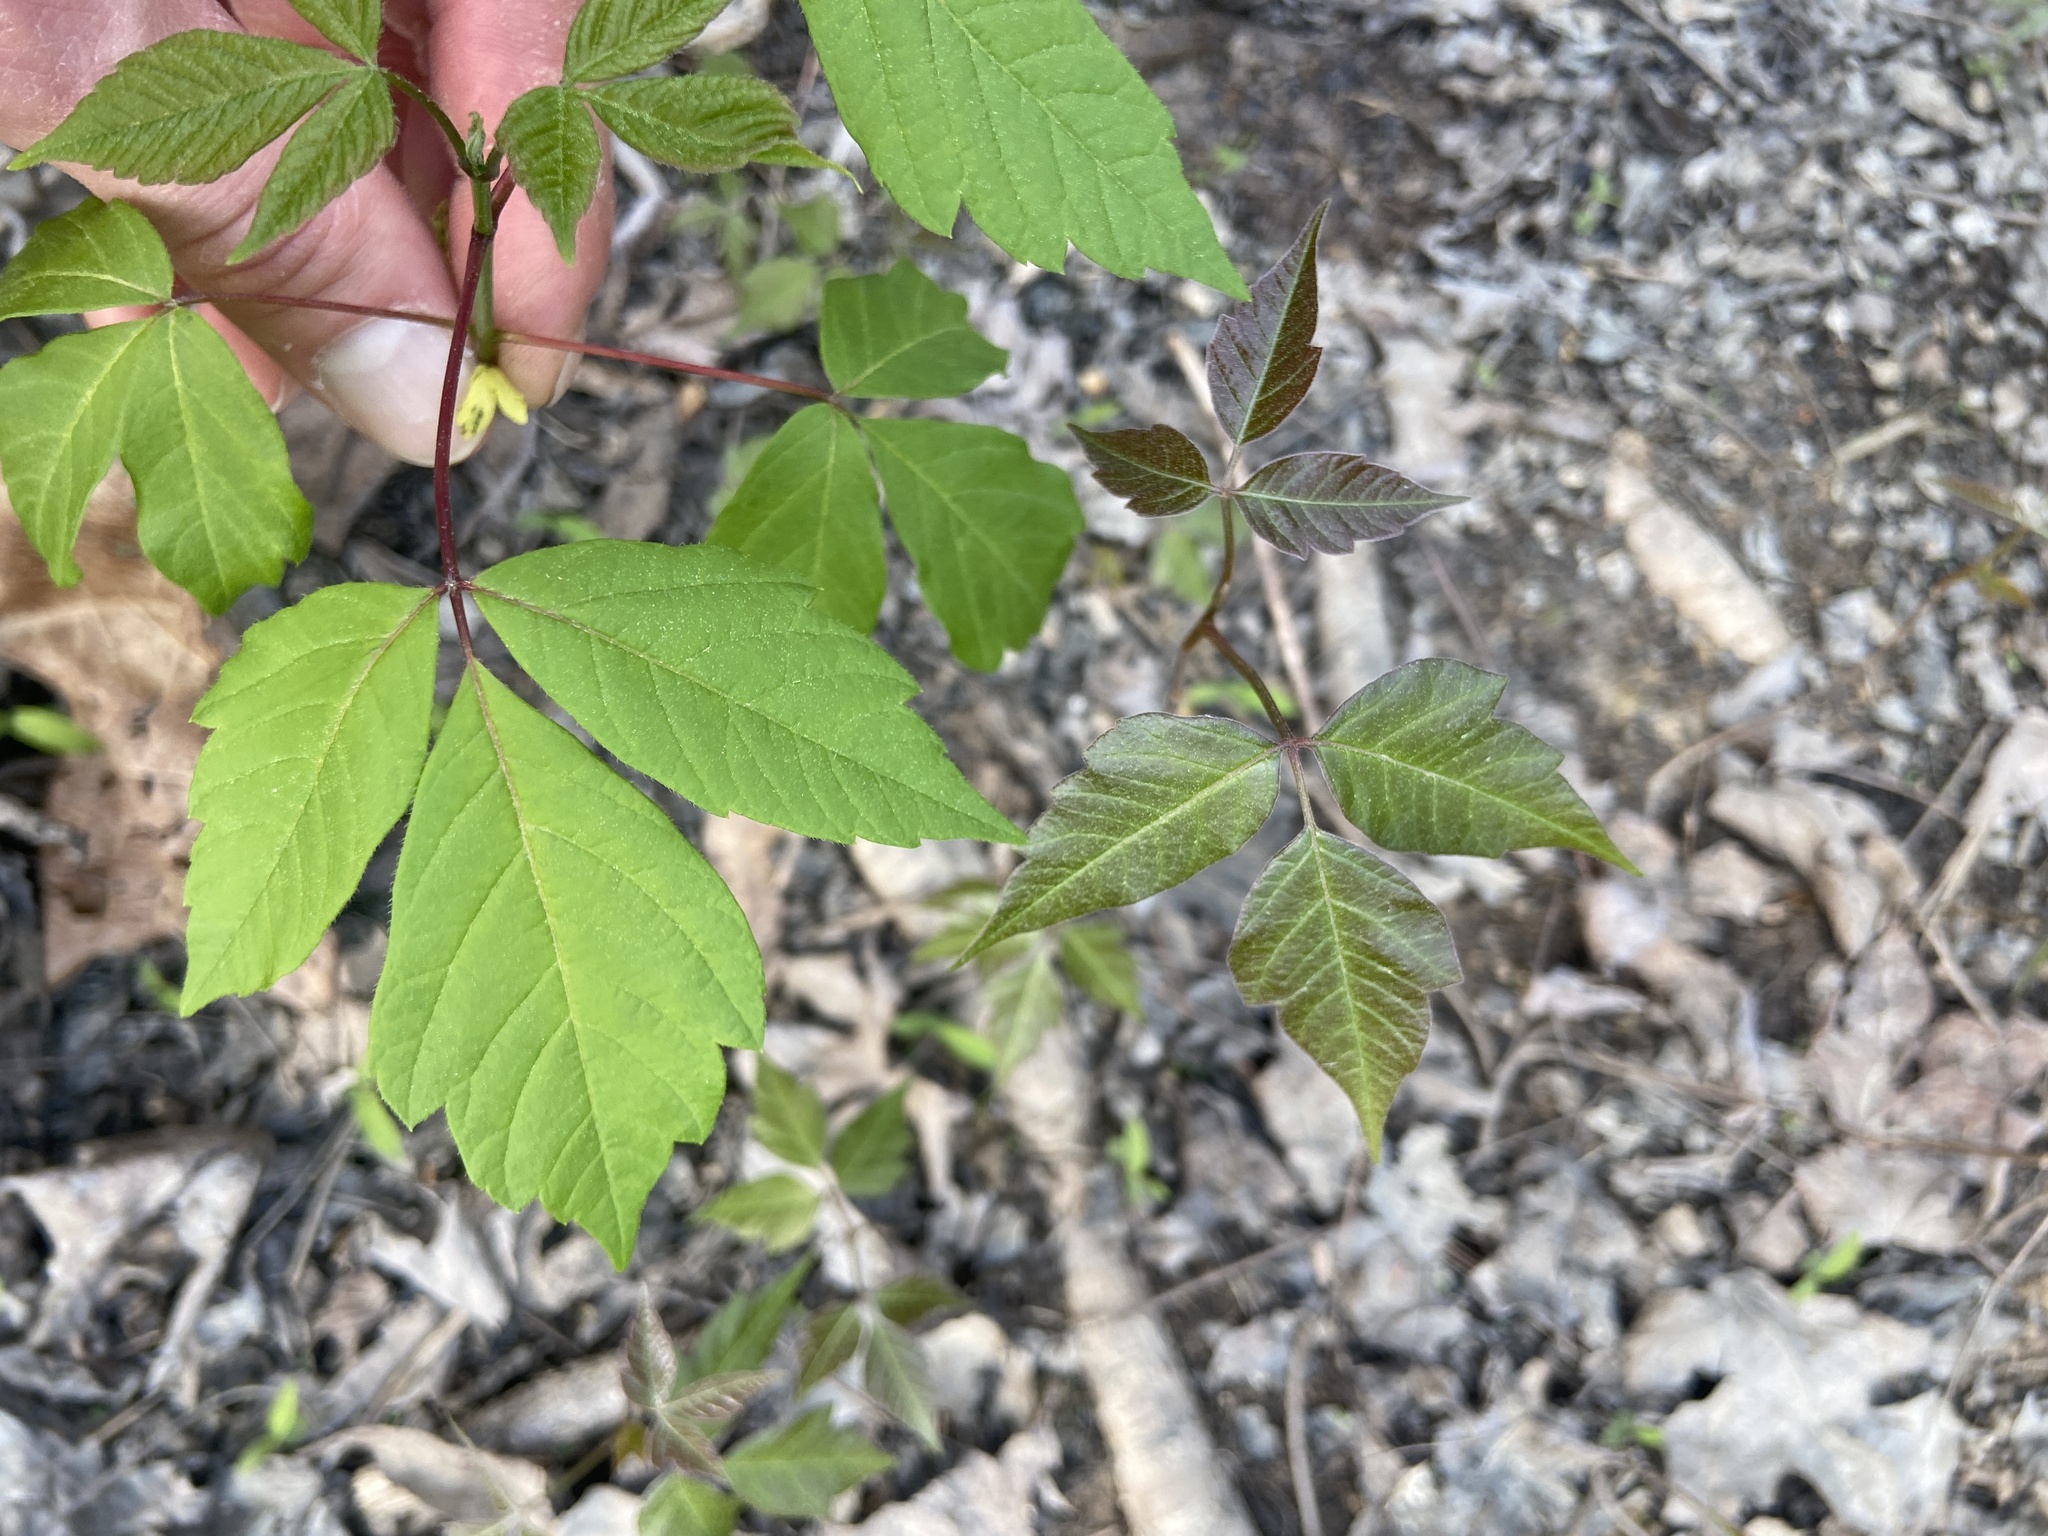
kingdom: Plantae
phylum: Tracheophyta
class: Magnoliopsida
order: Sapindales
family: Anacardiaceae
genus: Toxicodendron
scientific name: Toxicodendron radicans
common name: Poison ivy
